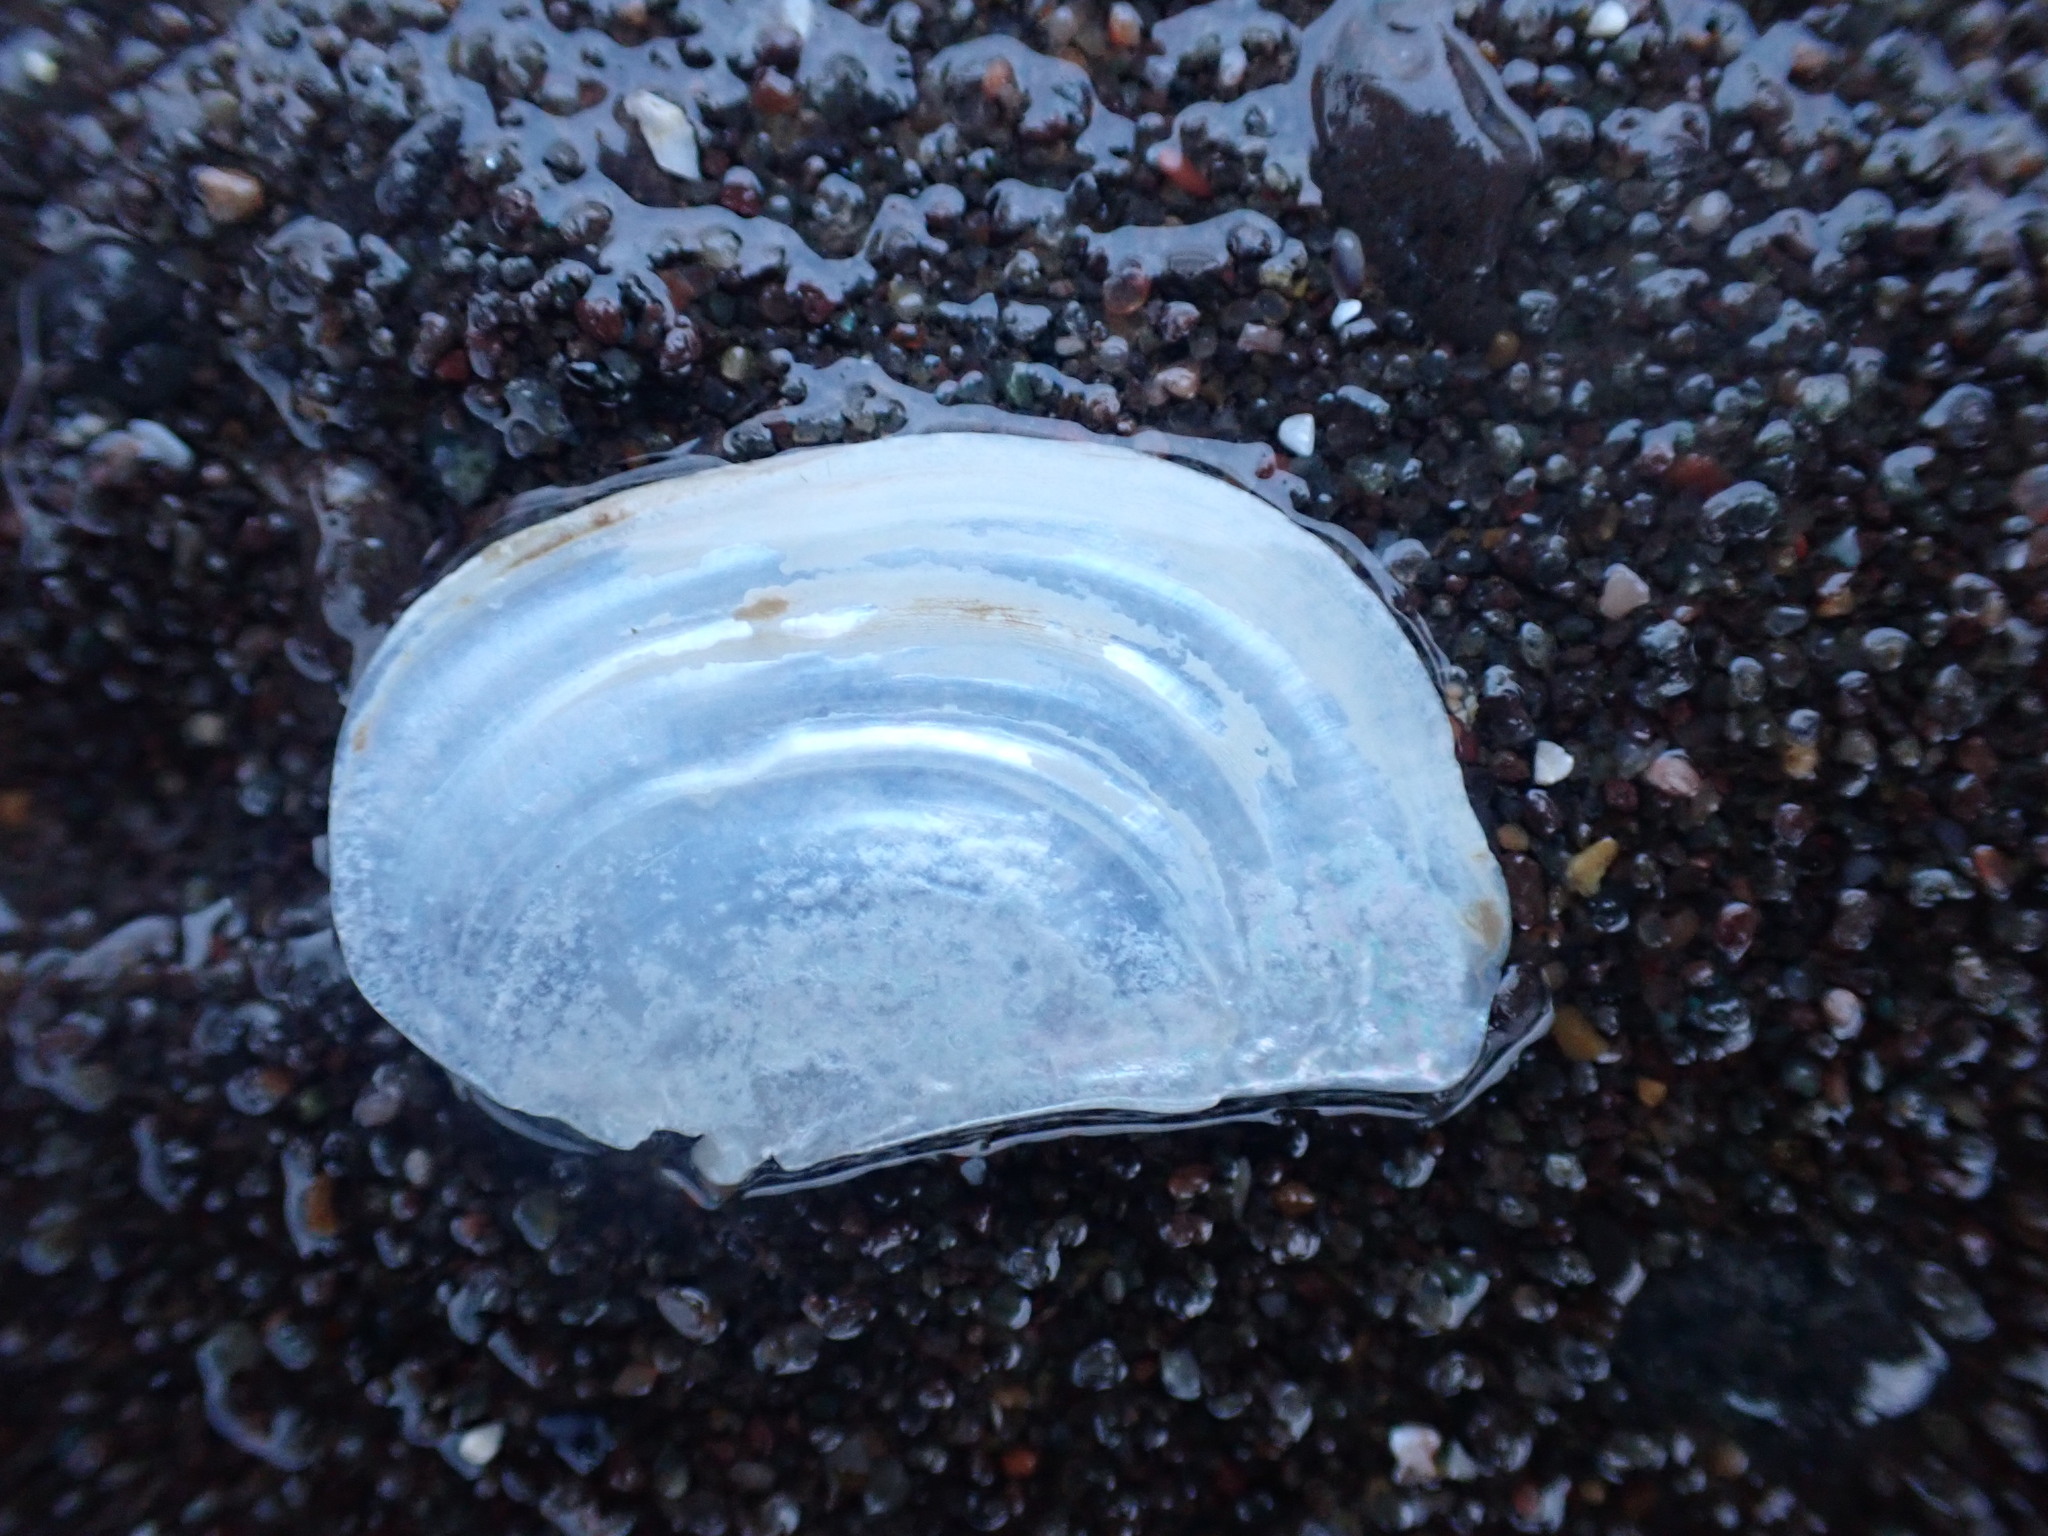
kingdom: Animalia
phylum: Mollusca
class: Bivalvia
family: Pandoridae
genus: Pandora
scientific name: Pandora gouldiana
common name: Rounded pandora
